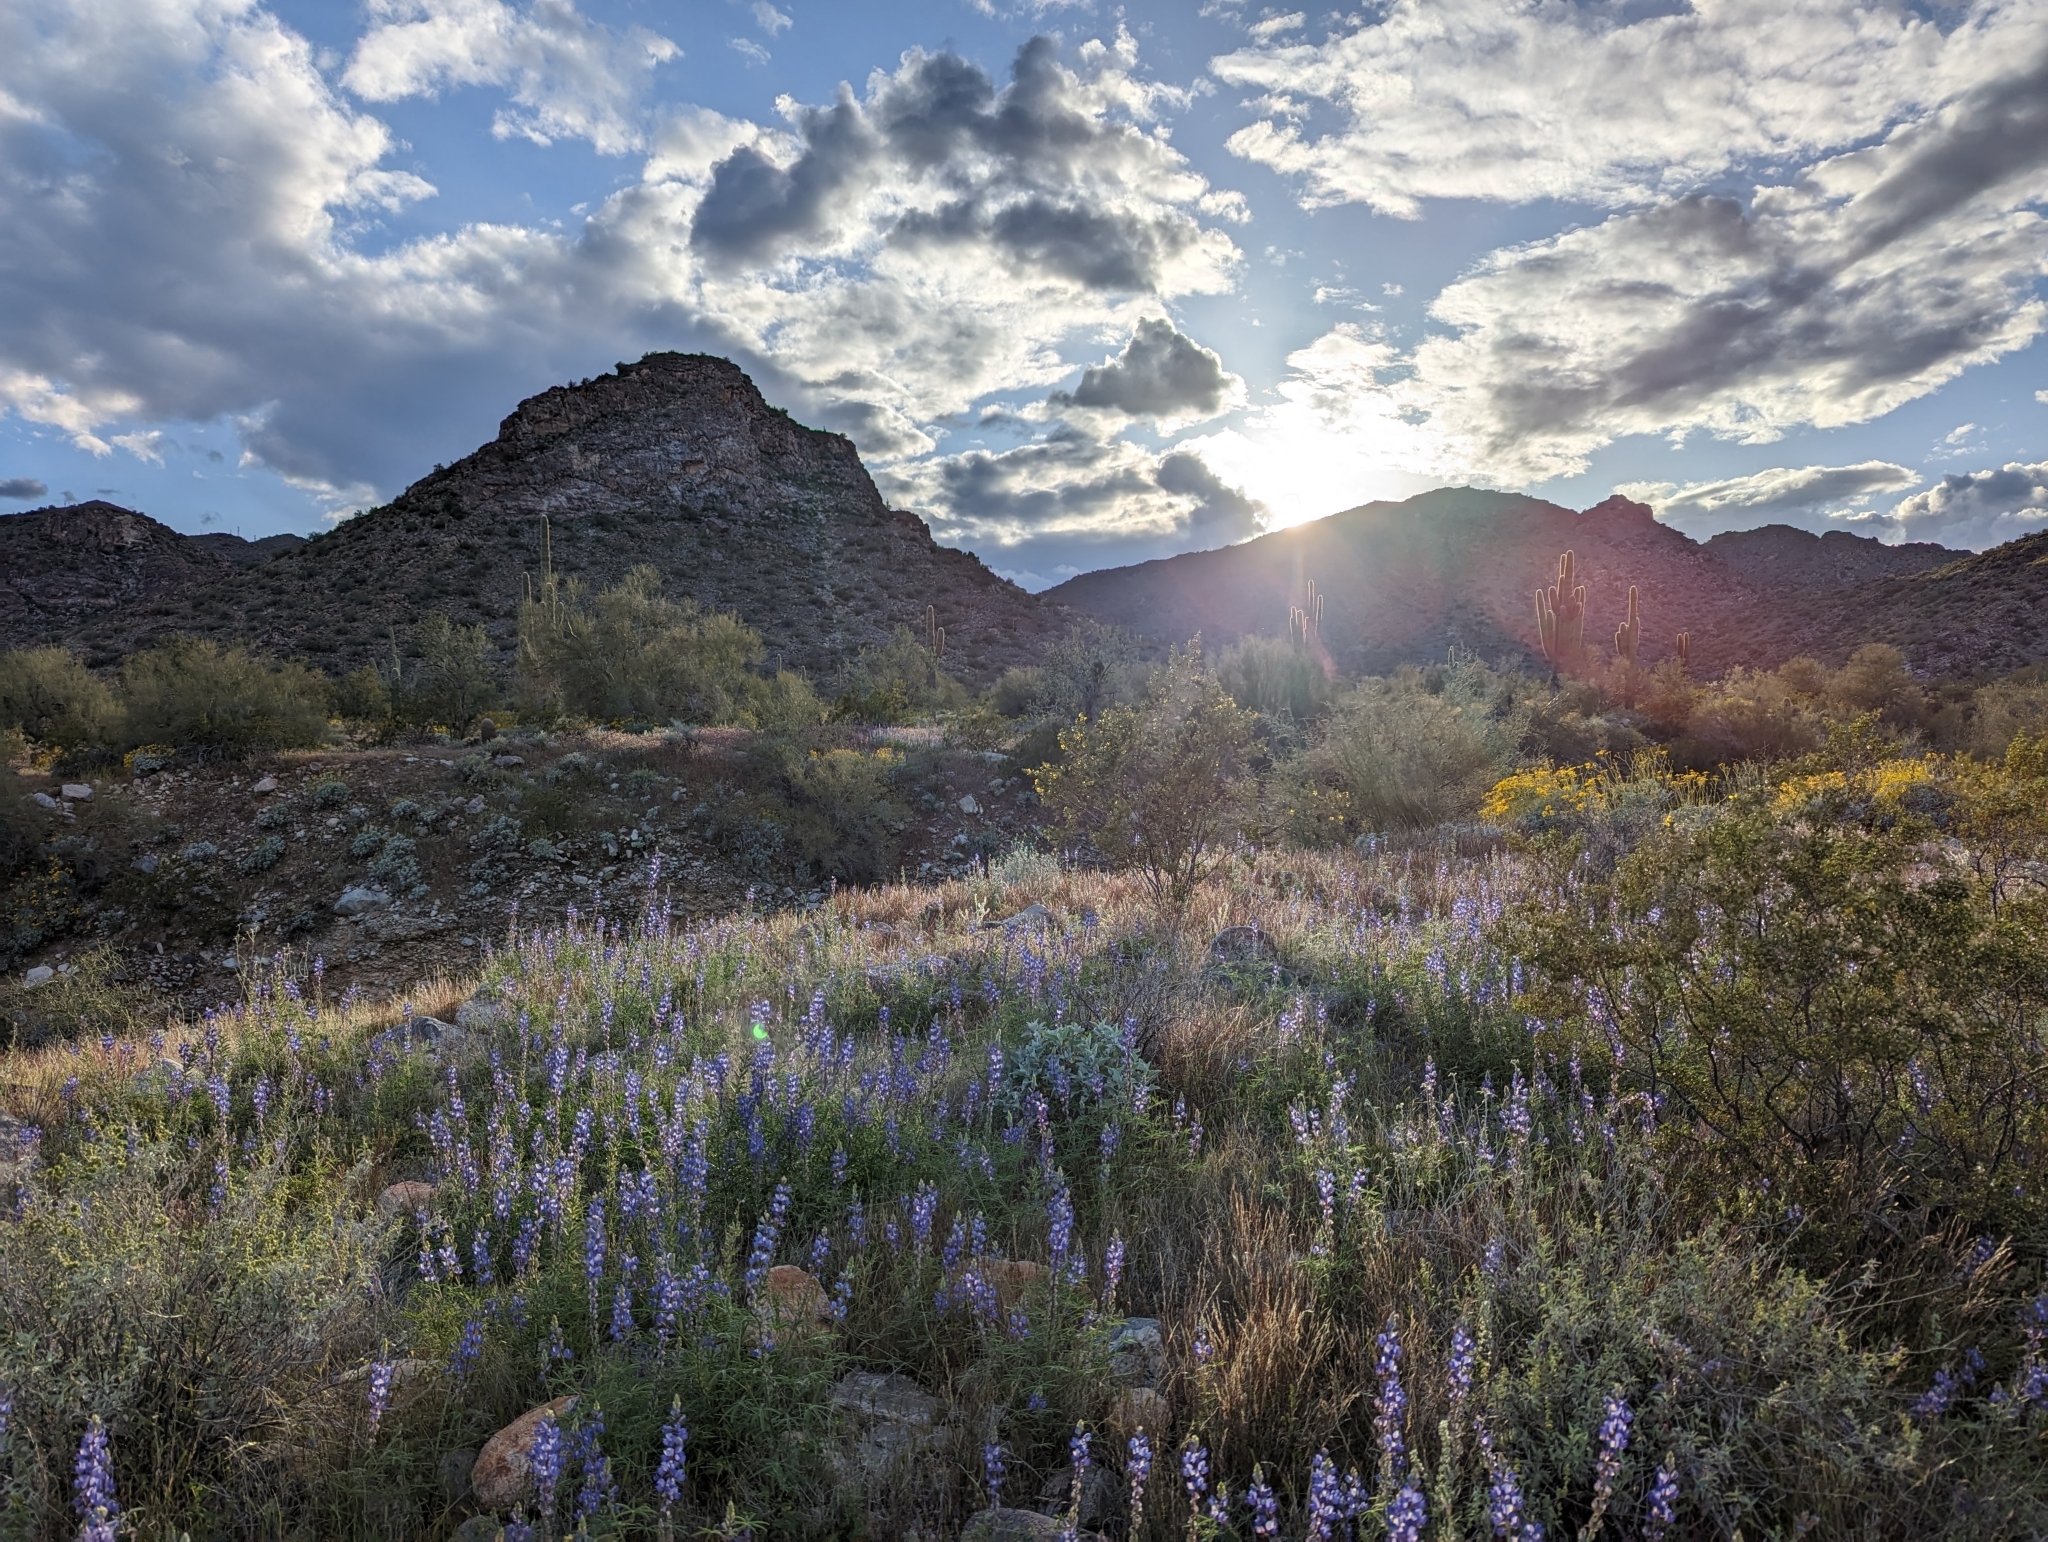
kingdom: Plantae
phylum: Tracheophyta
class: Magnoliopsida
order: Fabales
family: Fabaceae
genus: Lupinus
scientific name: Lupinus sparsiflorus
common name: Coulter's lupine
